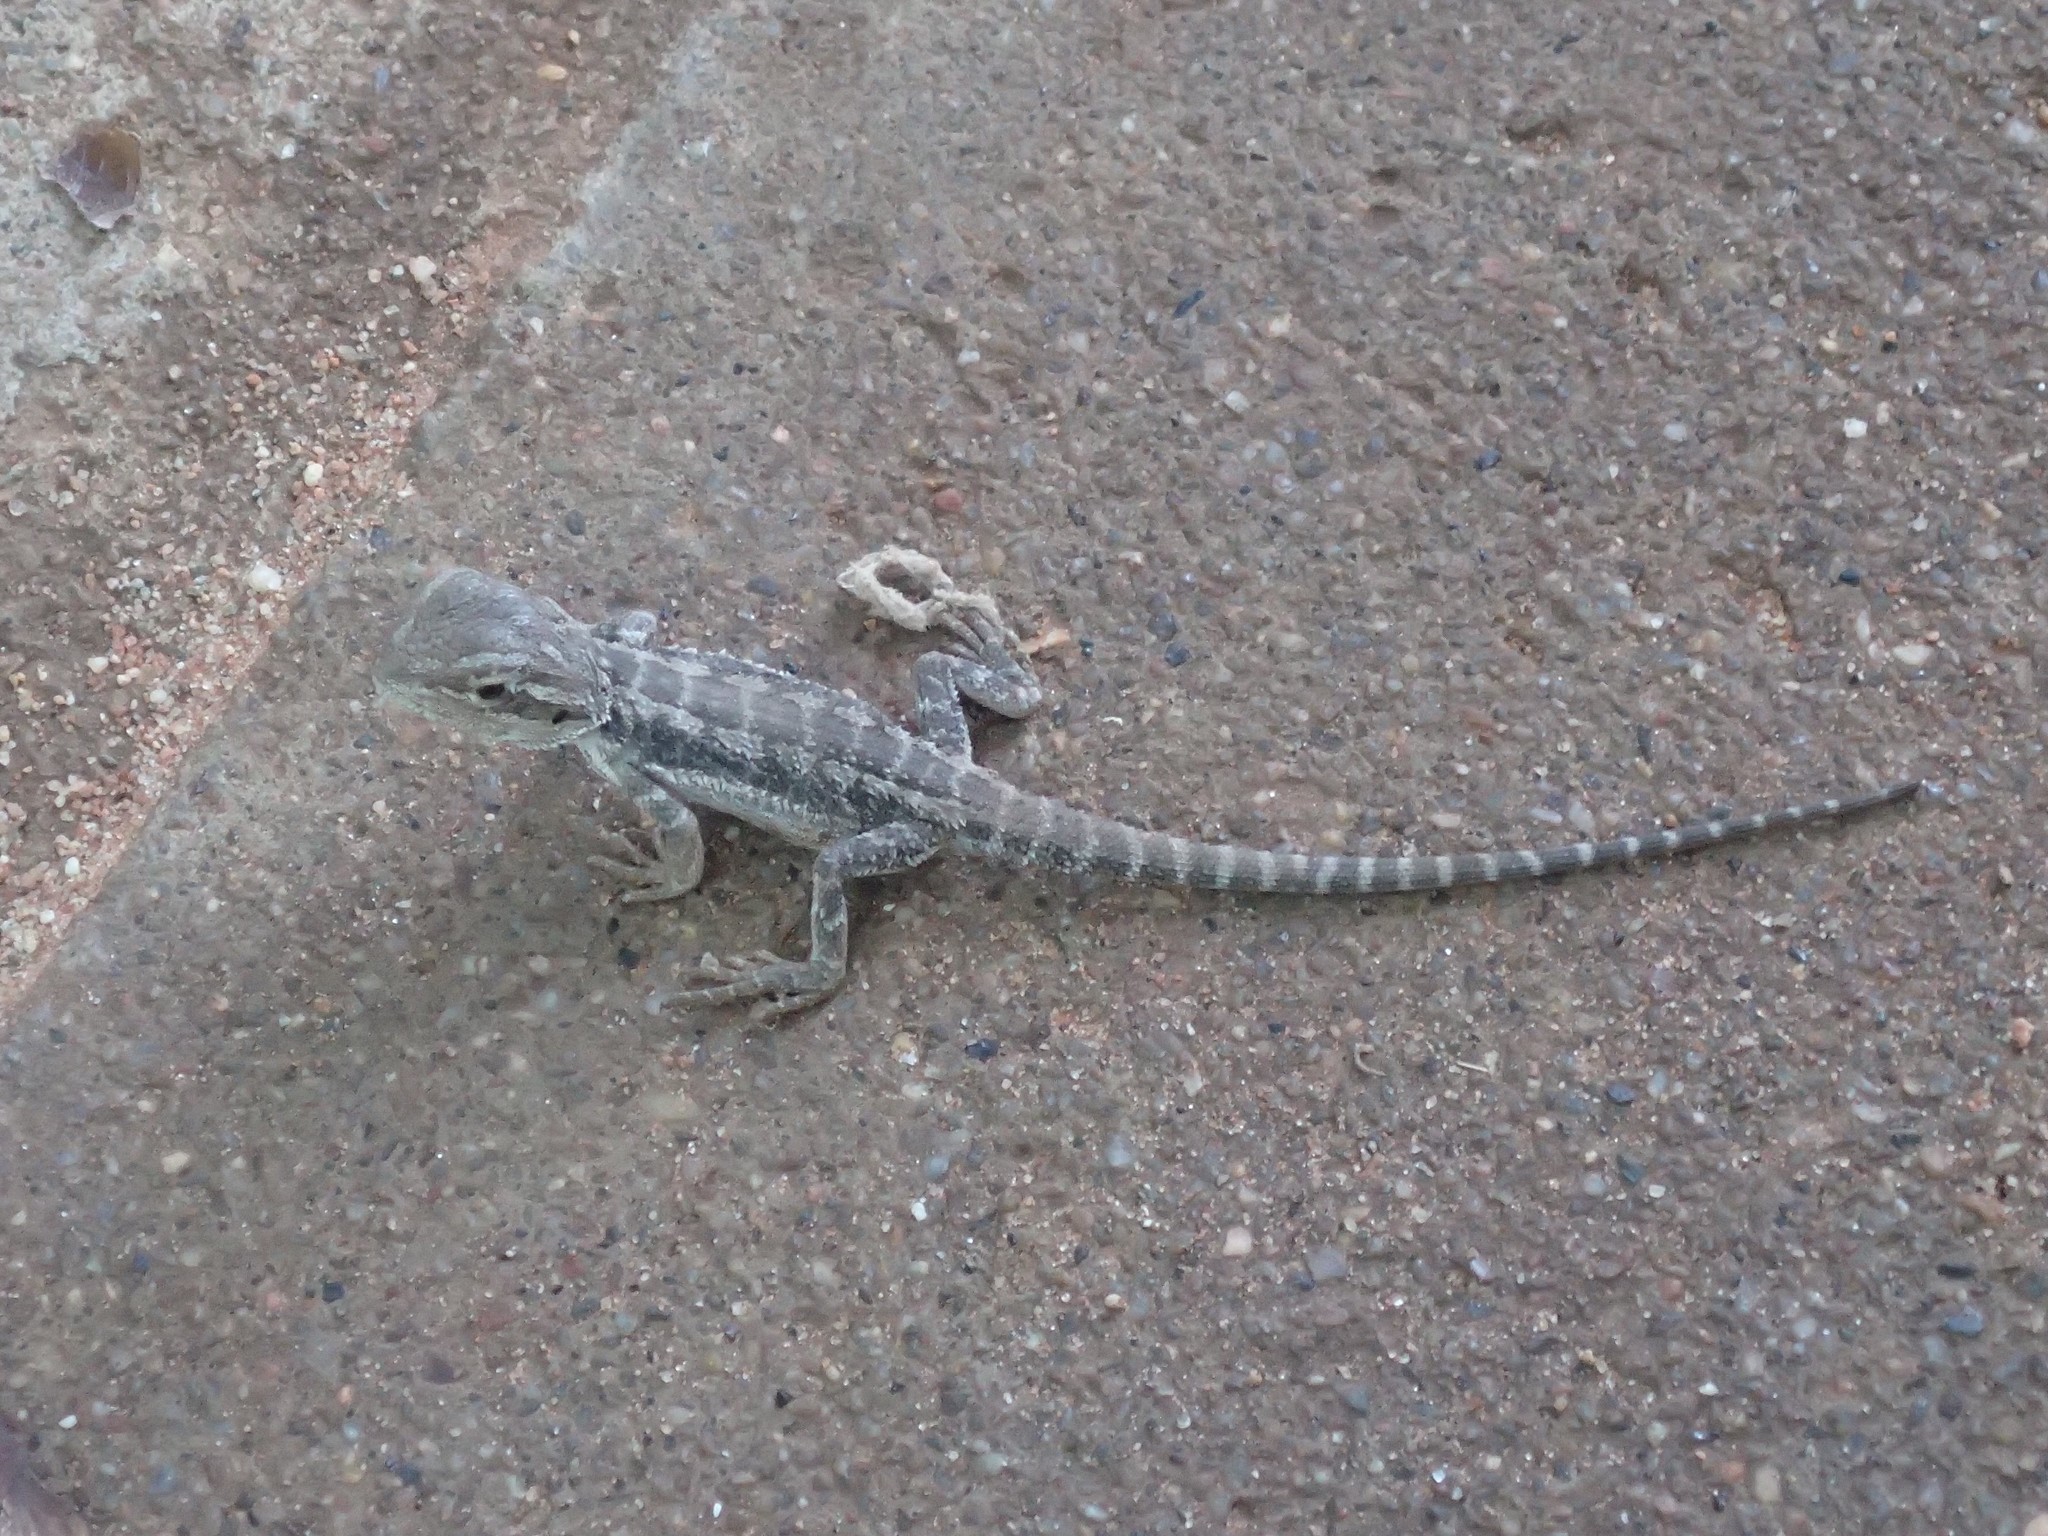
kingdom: Animalia
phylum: Chordata
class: Squamata
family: Agamidae
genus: Pogona
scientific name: Pogona vitticeps
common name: Central bearded dragon
